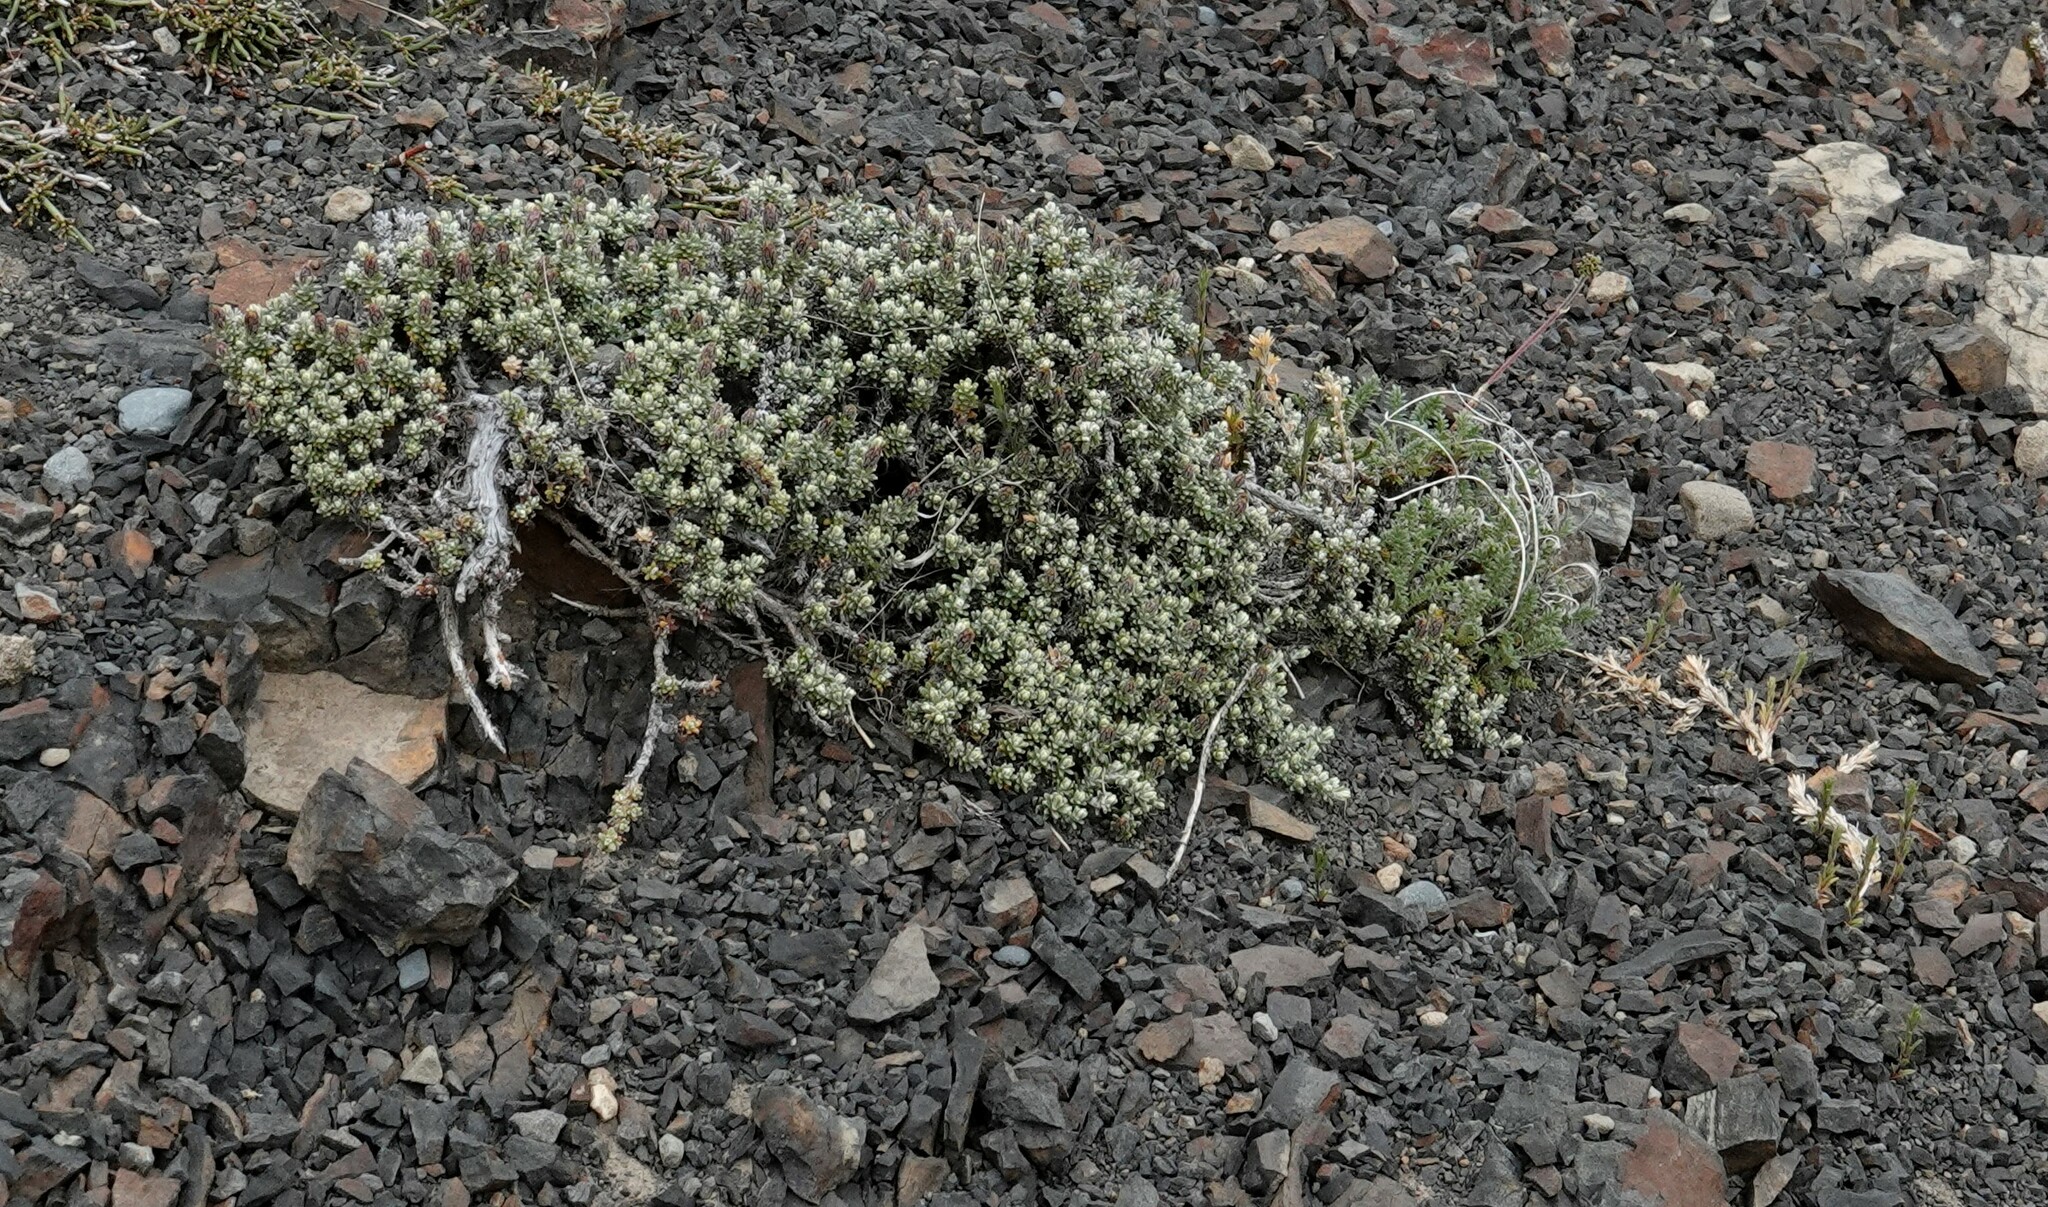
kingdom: Plantae
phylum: Tracheophyta
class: Magnoliopsida
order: Asterales
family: Asteraceae
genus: Nardophyllum
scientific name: Nardophyllum bryoides
